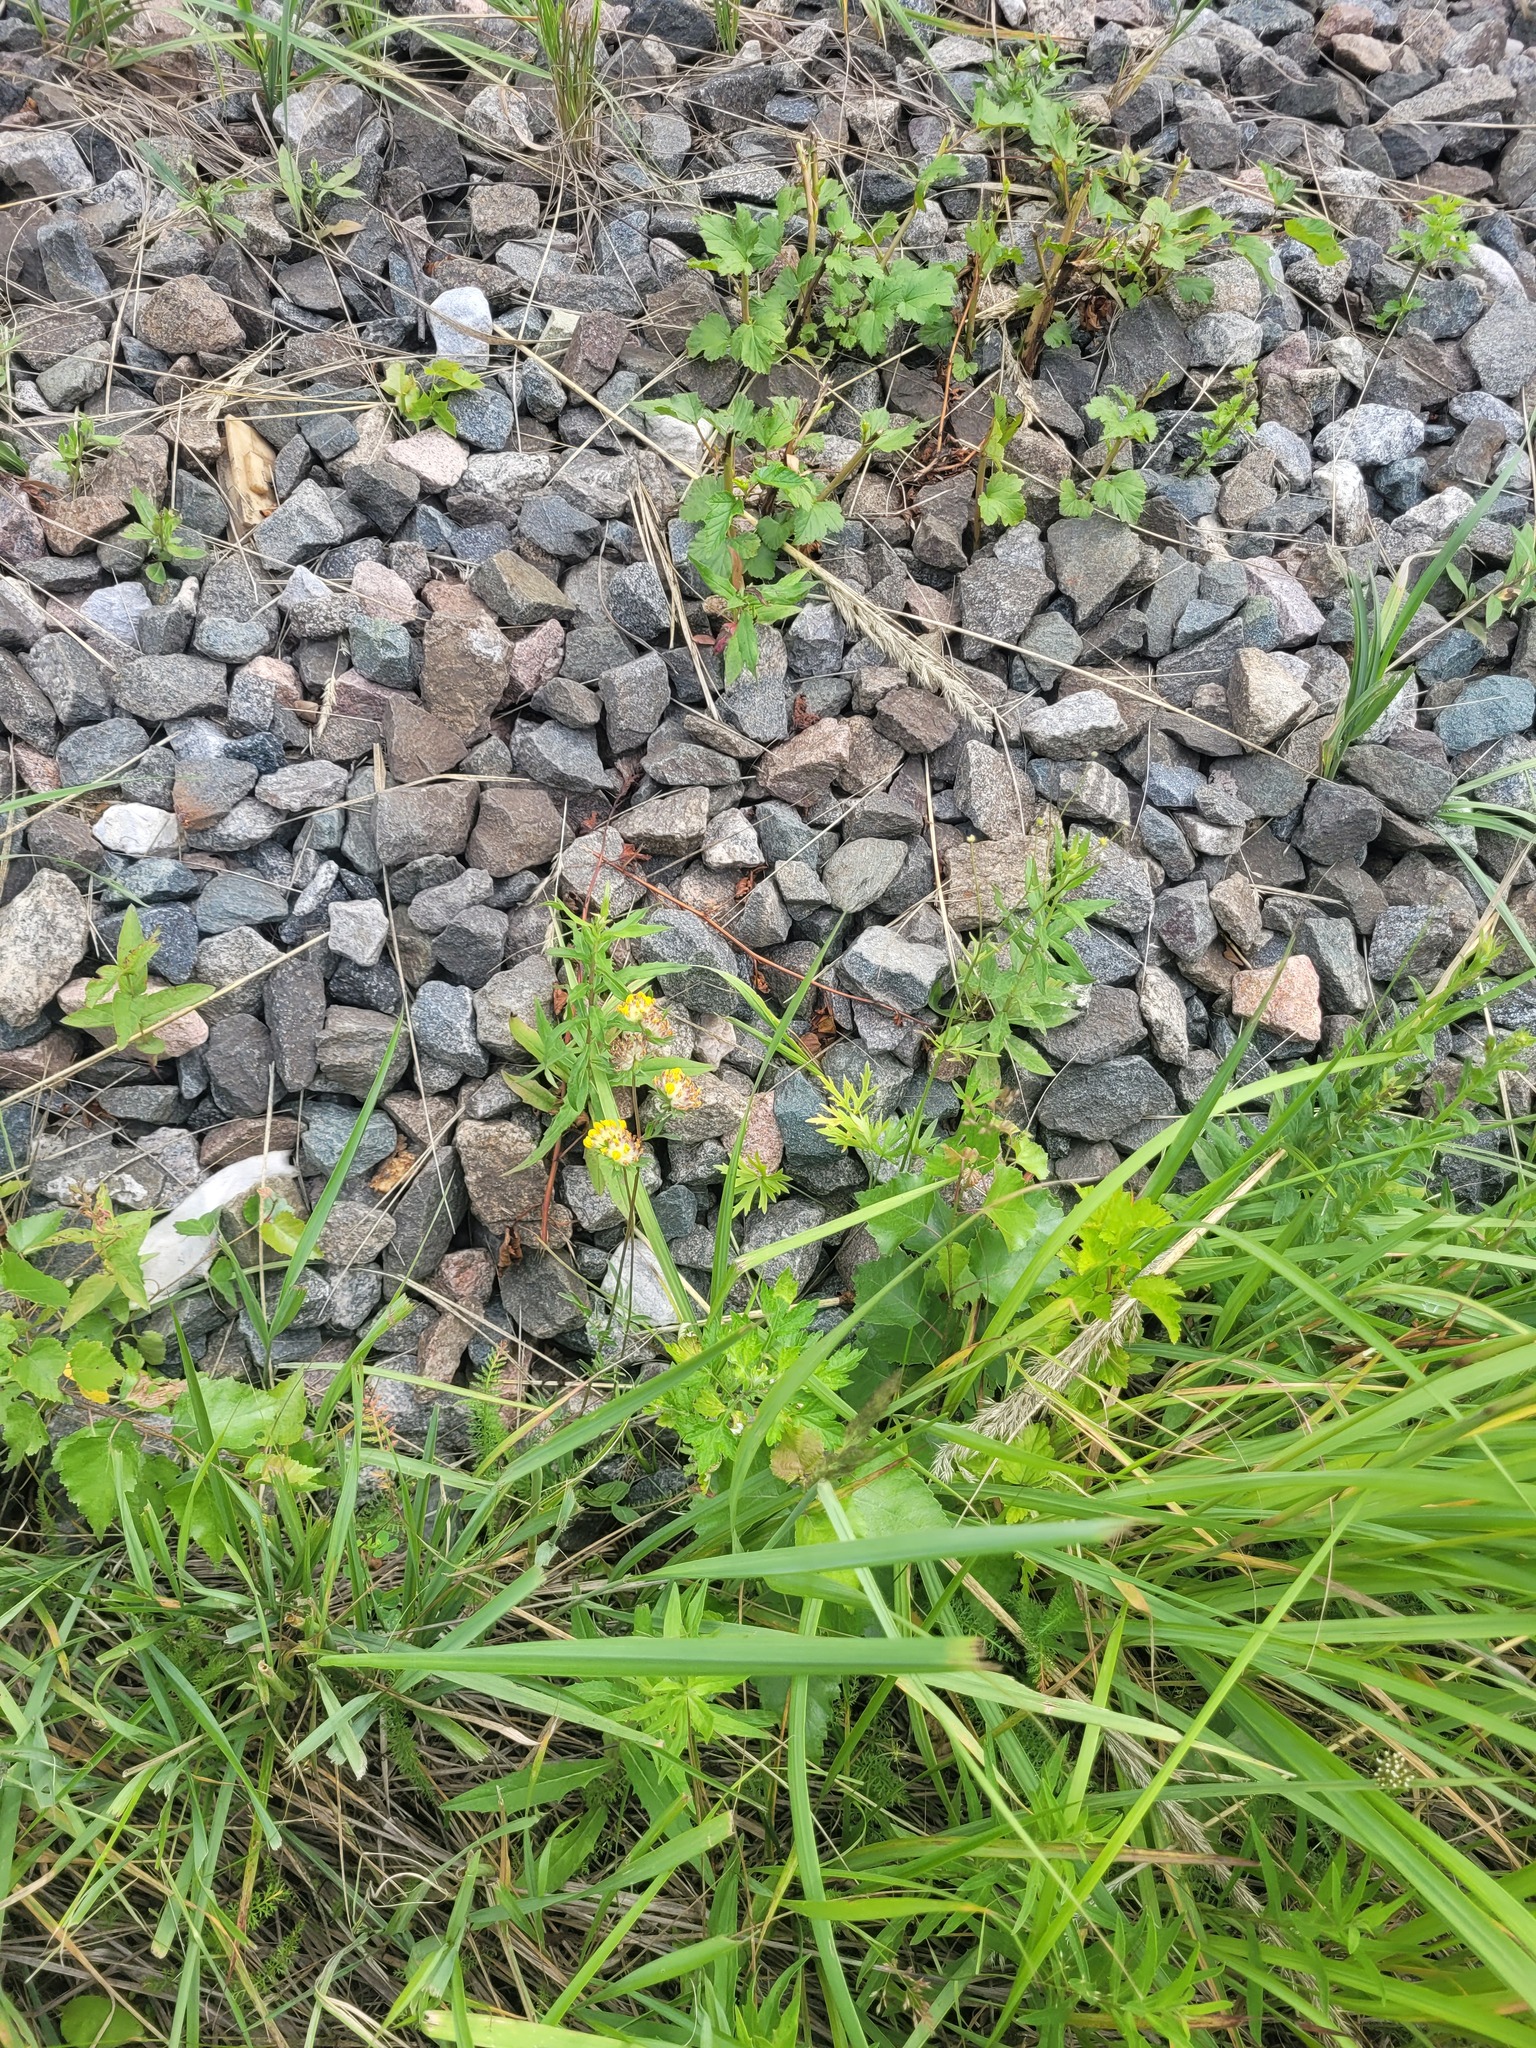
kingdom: Plantae
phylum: Tracheophyta
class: Magnoliopsida
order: Fabales
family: Fabaceae
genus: Anthyllis
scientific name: Anthyllis vulneraria
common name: Kidney vetch
